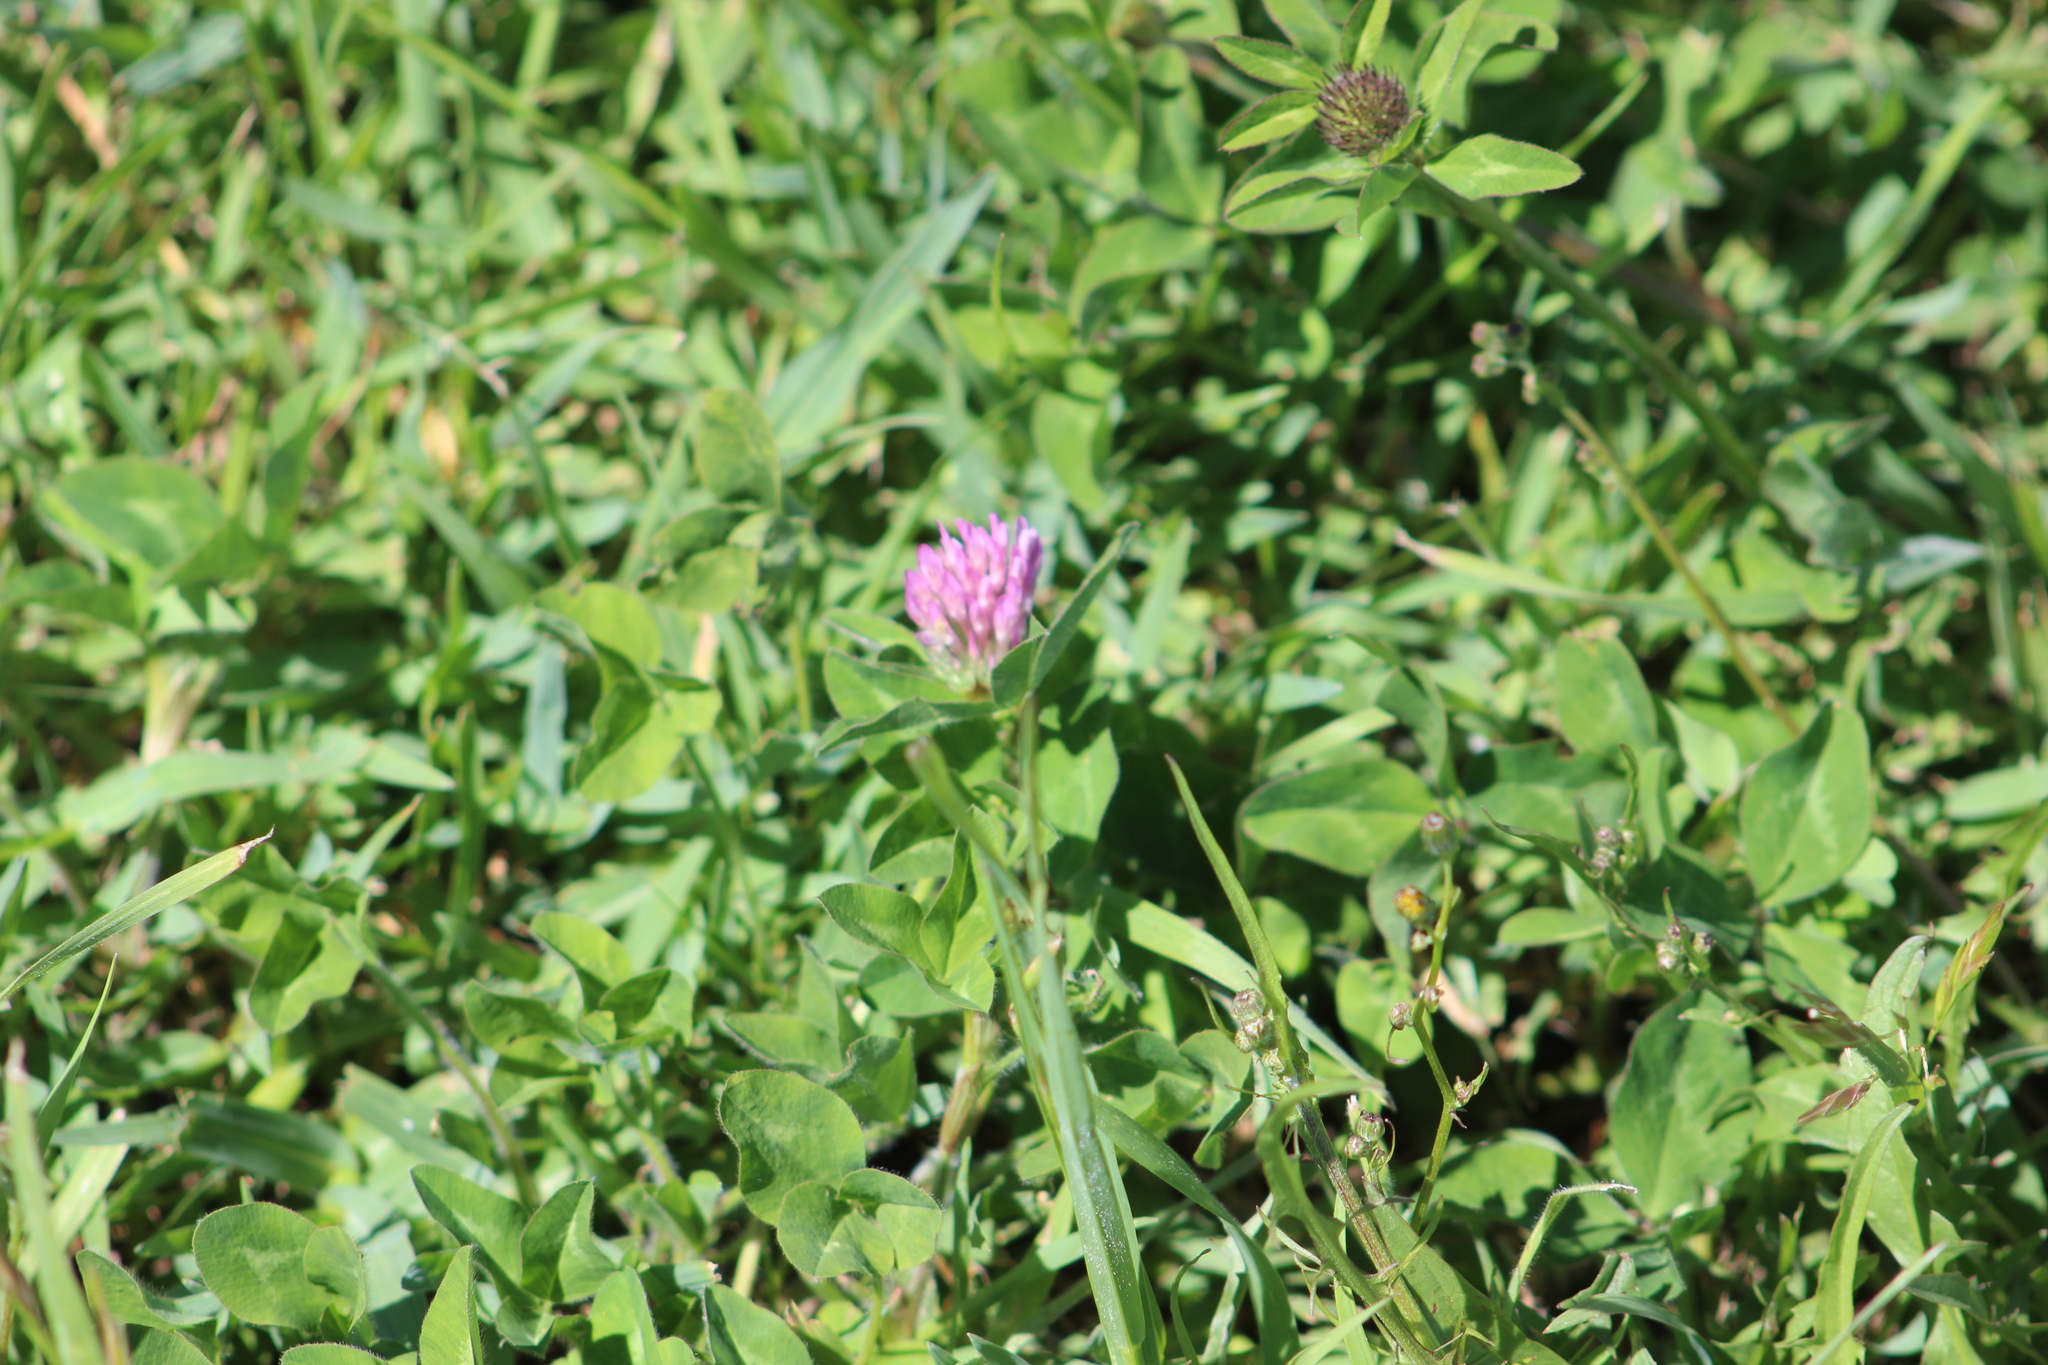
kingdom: Plantae
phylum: Tracheophyta
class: Magnoliopsida
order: Fabales
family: Fabaceae
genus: Trifolium
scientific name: Trifolium pratense
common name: Red clover
